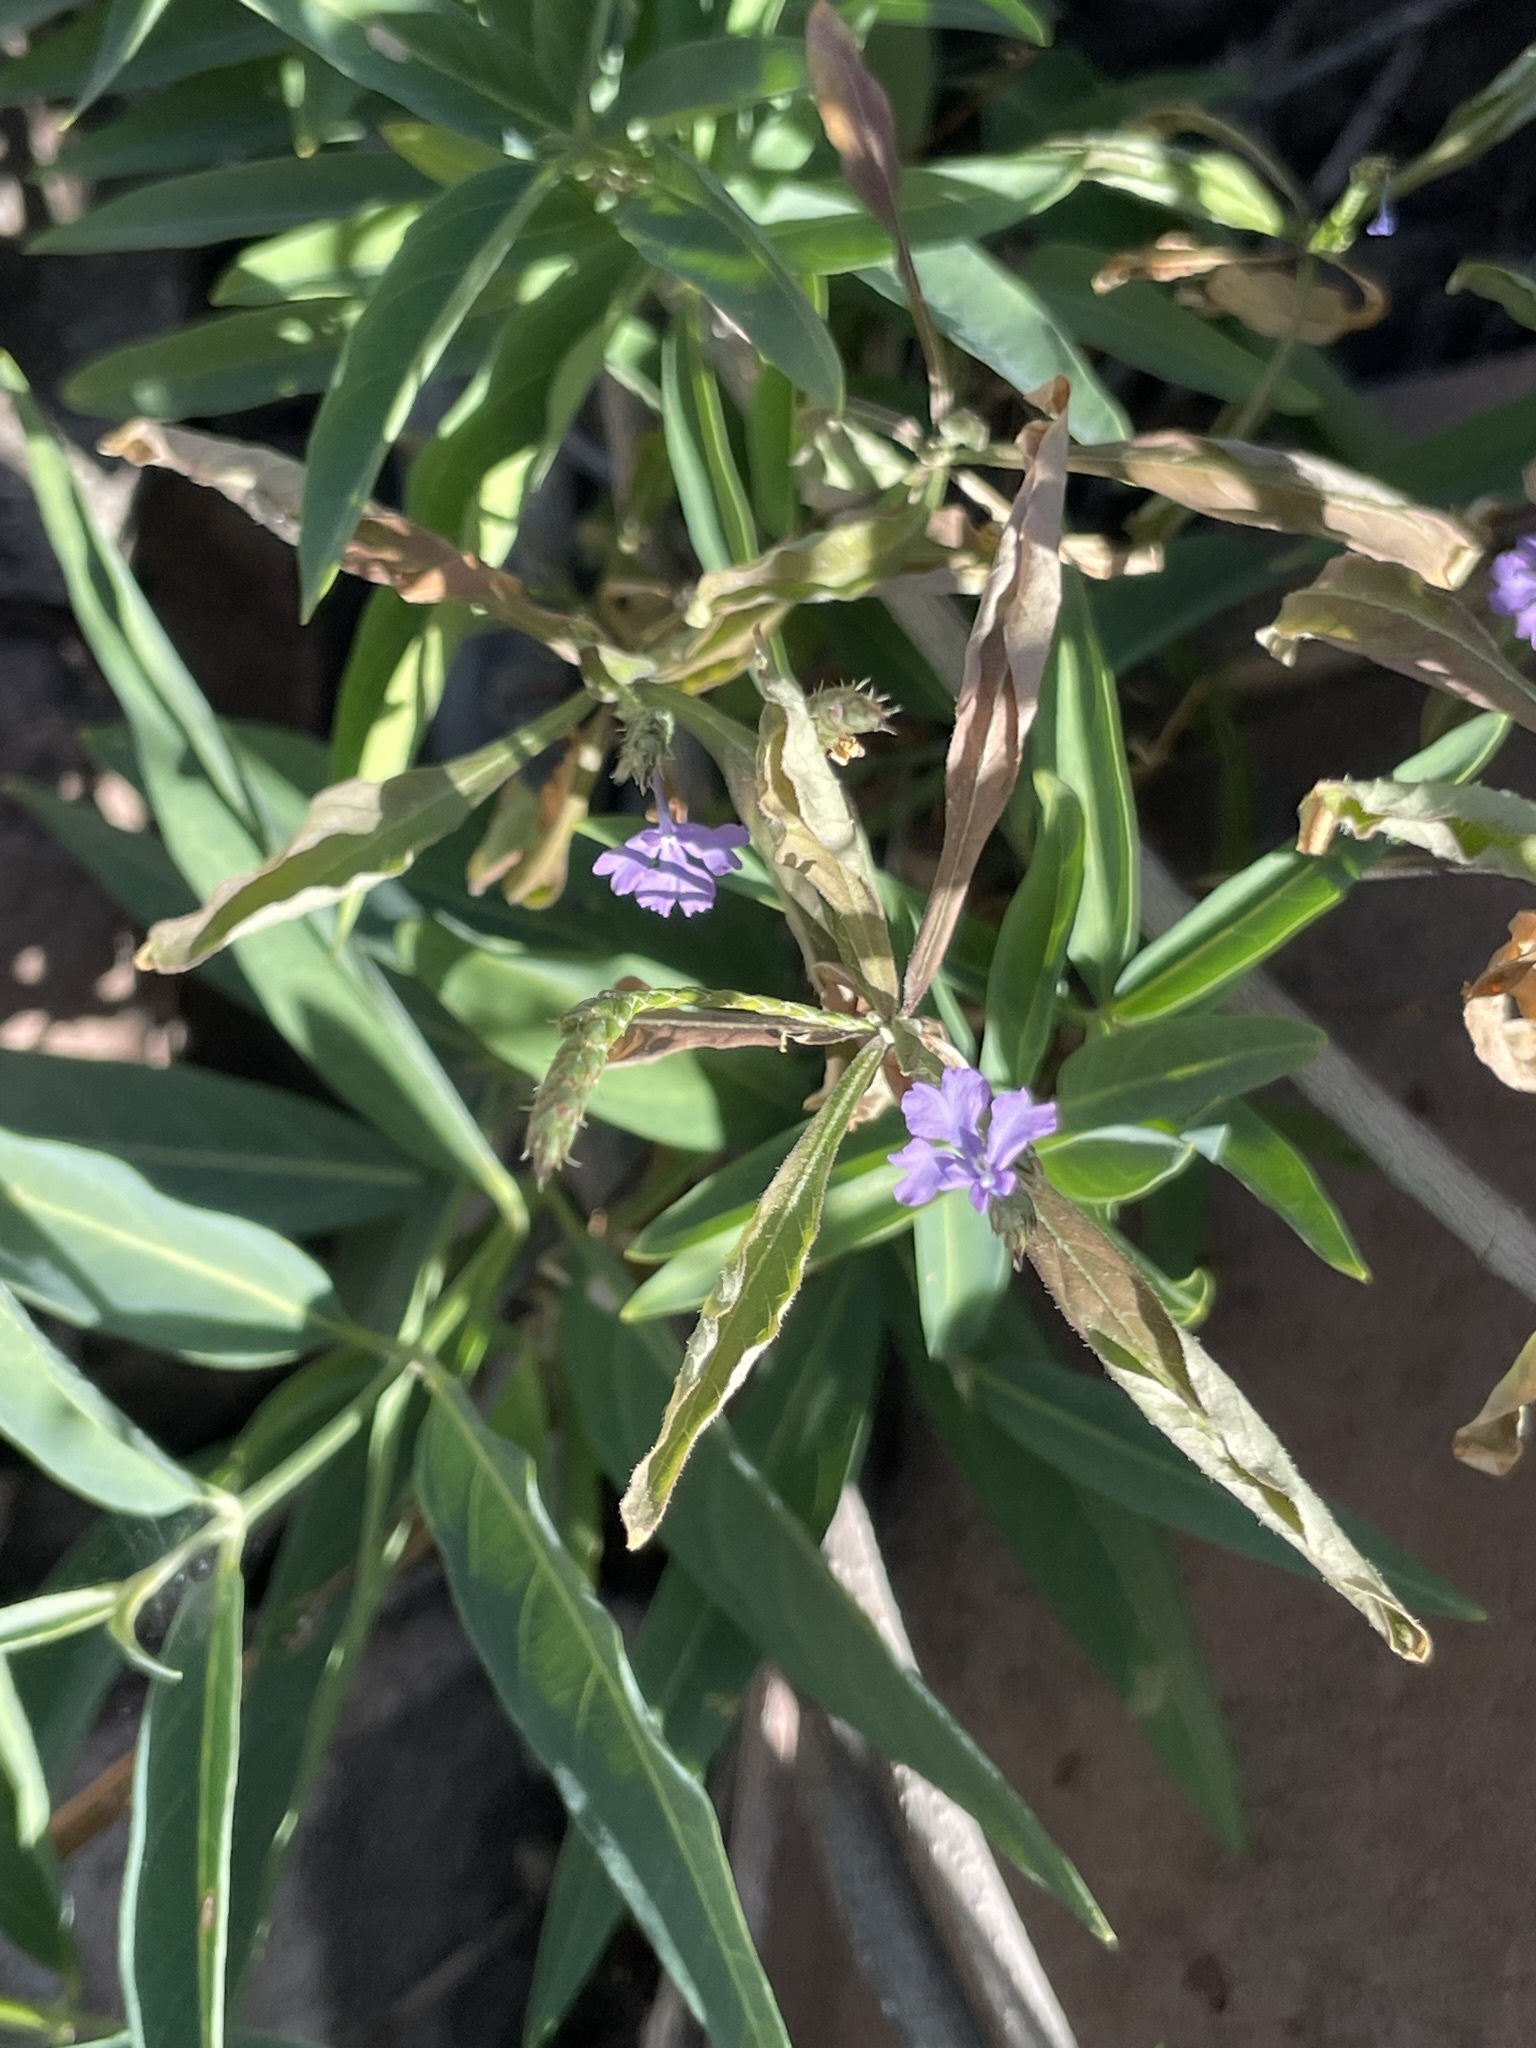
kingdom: Plantae
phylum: Tracheophyta
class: Magnoliopsida
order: Lamiales
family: Acanthaceae
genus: Elytraria
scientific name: Elytraria imbricata
